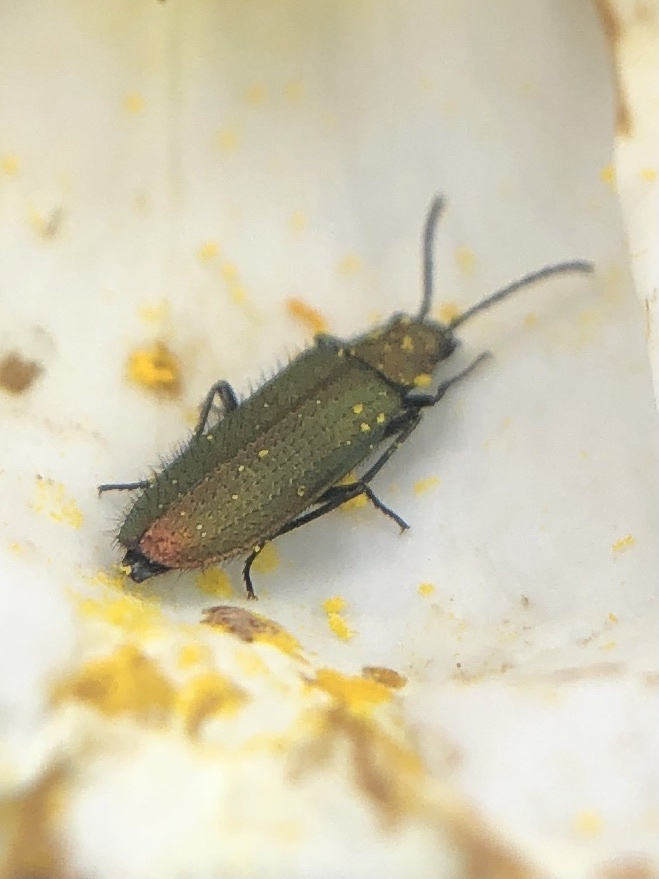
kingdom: Animalia
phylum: Arthropoda
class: Insecta
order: Coleoptera
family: Stenotrachelidae
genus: Stenotrachelus
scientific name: Stenotrachelus aeneus
